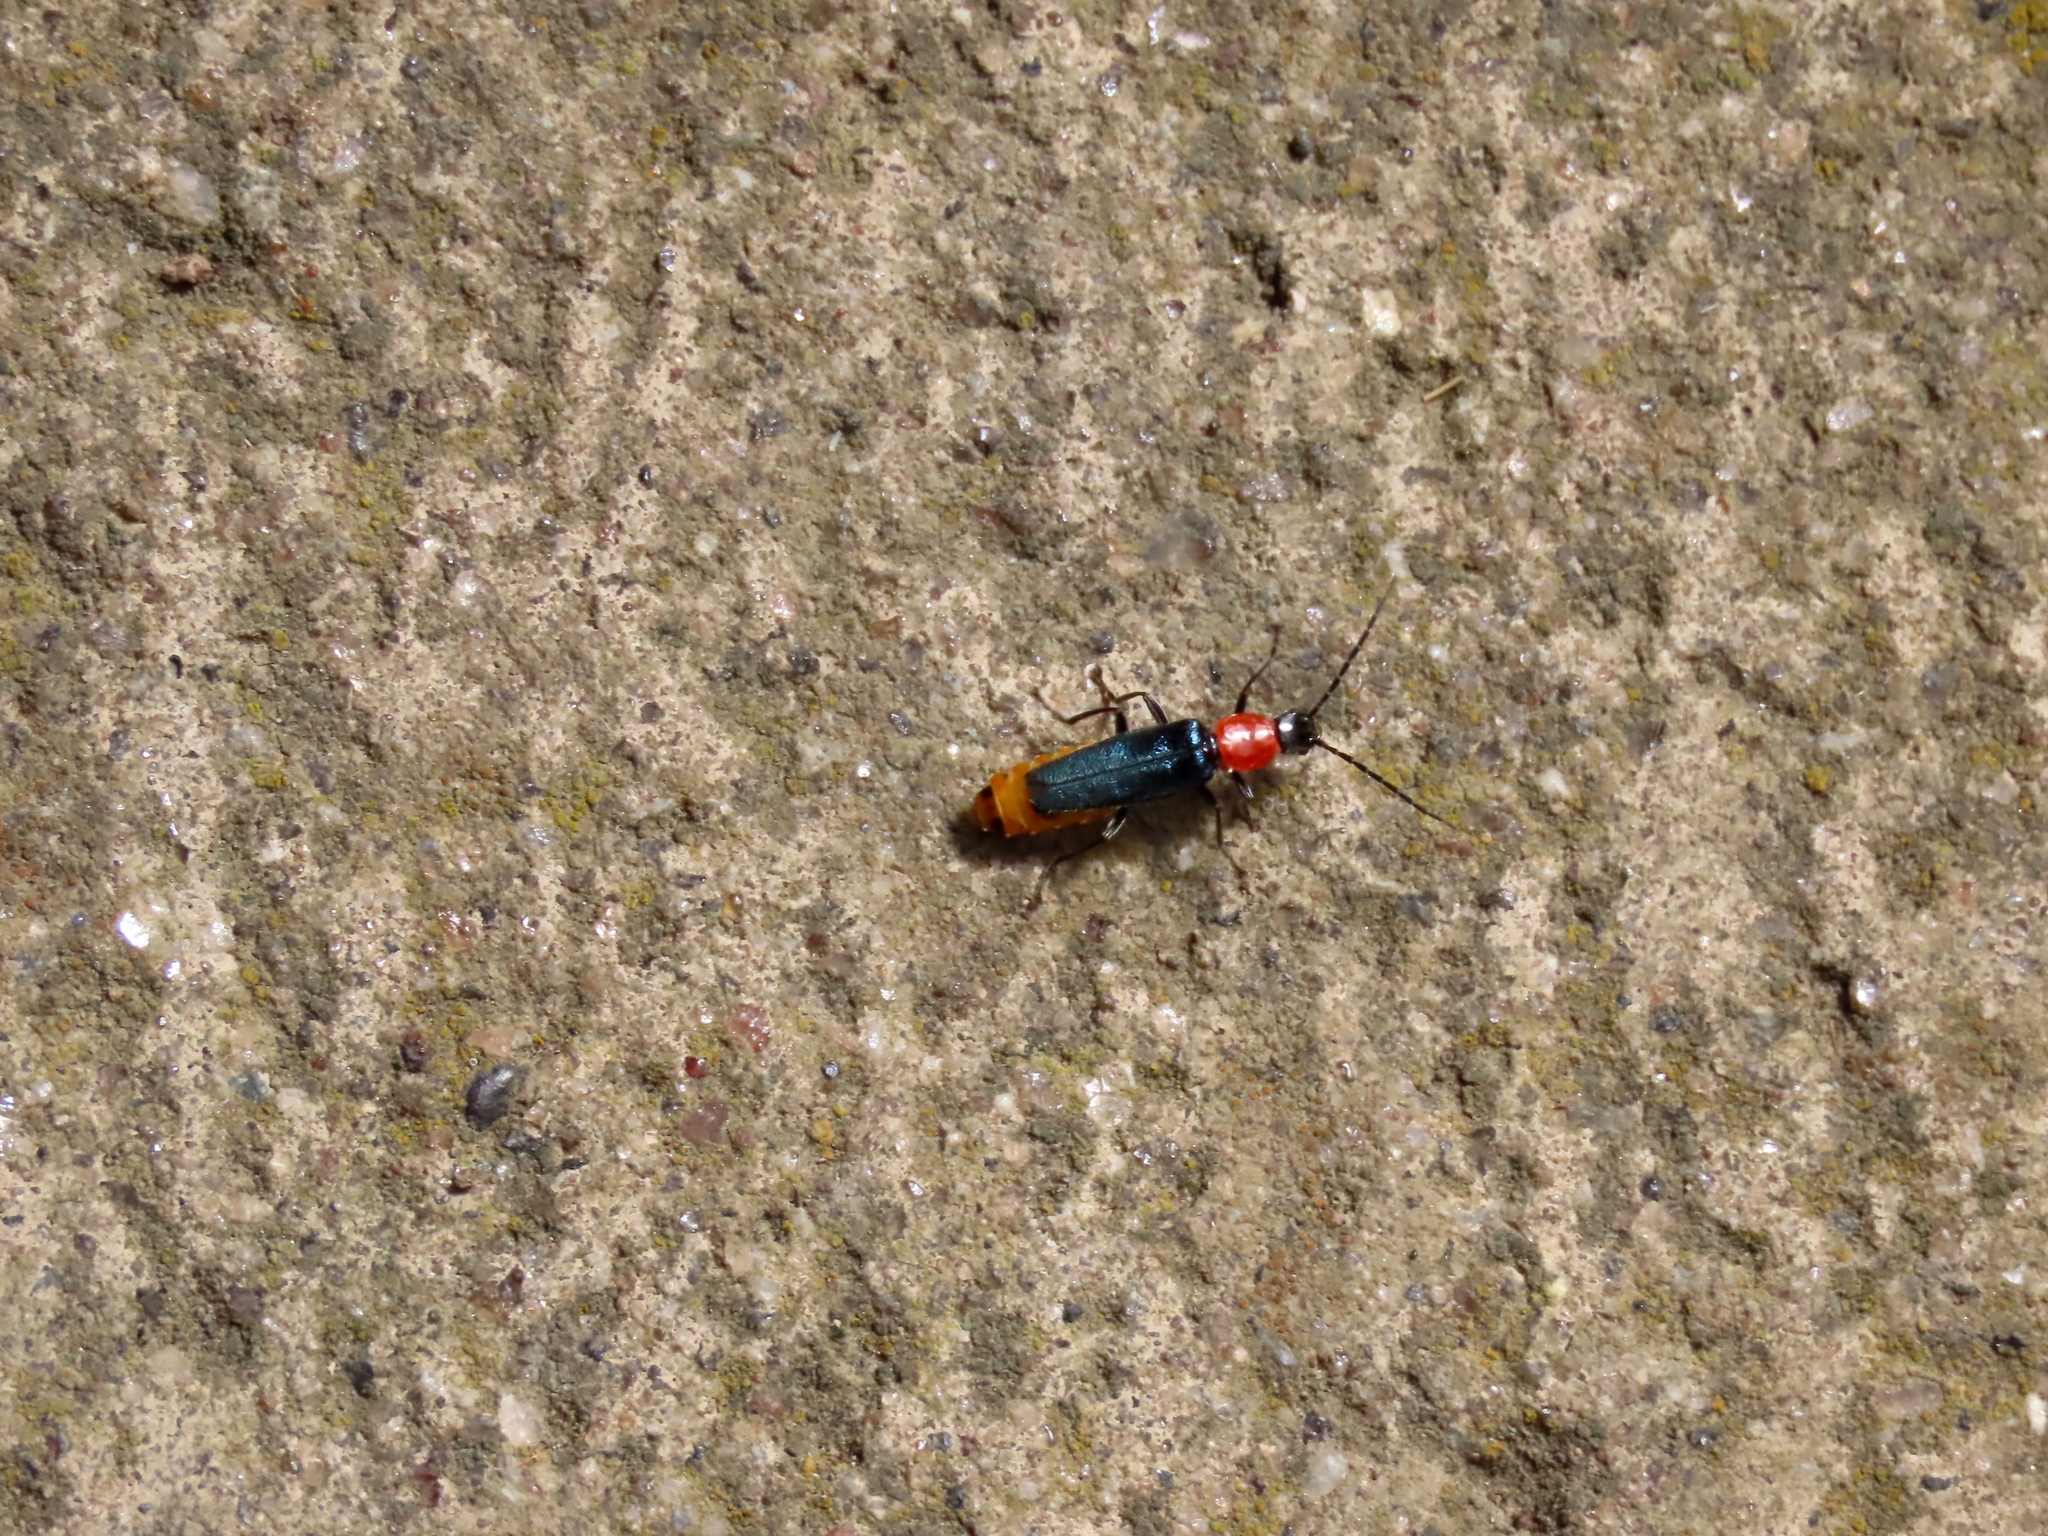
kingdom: Animalia
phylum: Arthropoda
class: Insecta
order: Coleoptera
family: Cantharidae
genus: Chauliognathus
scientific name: Chauliognathus
